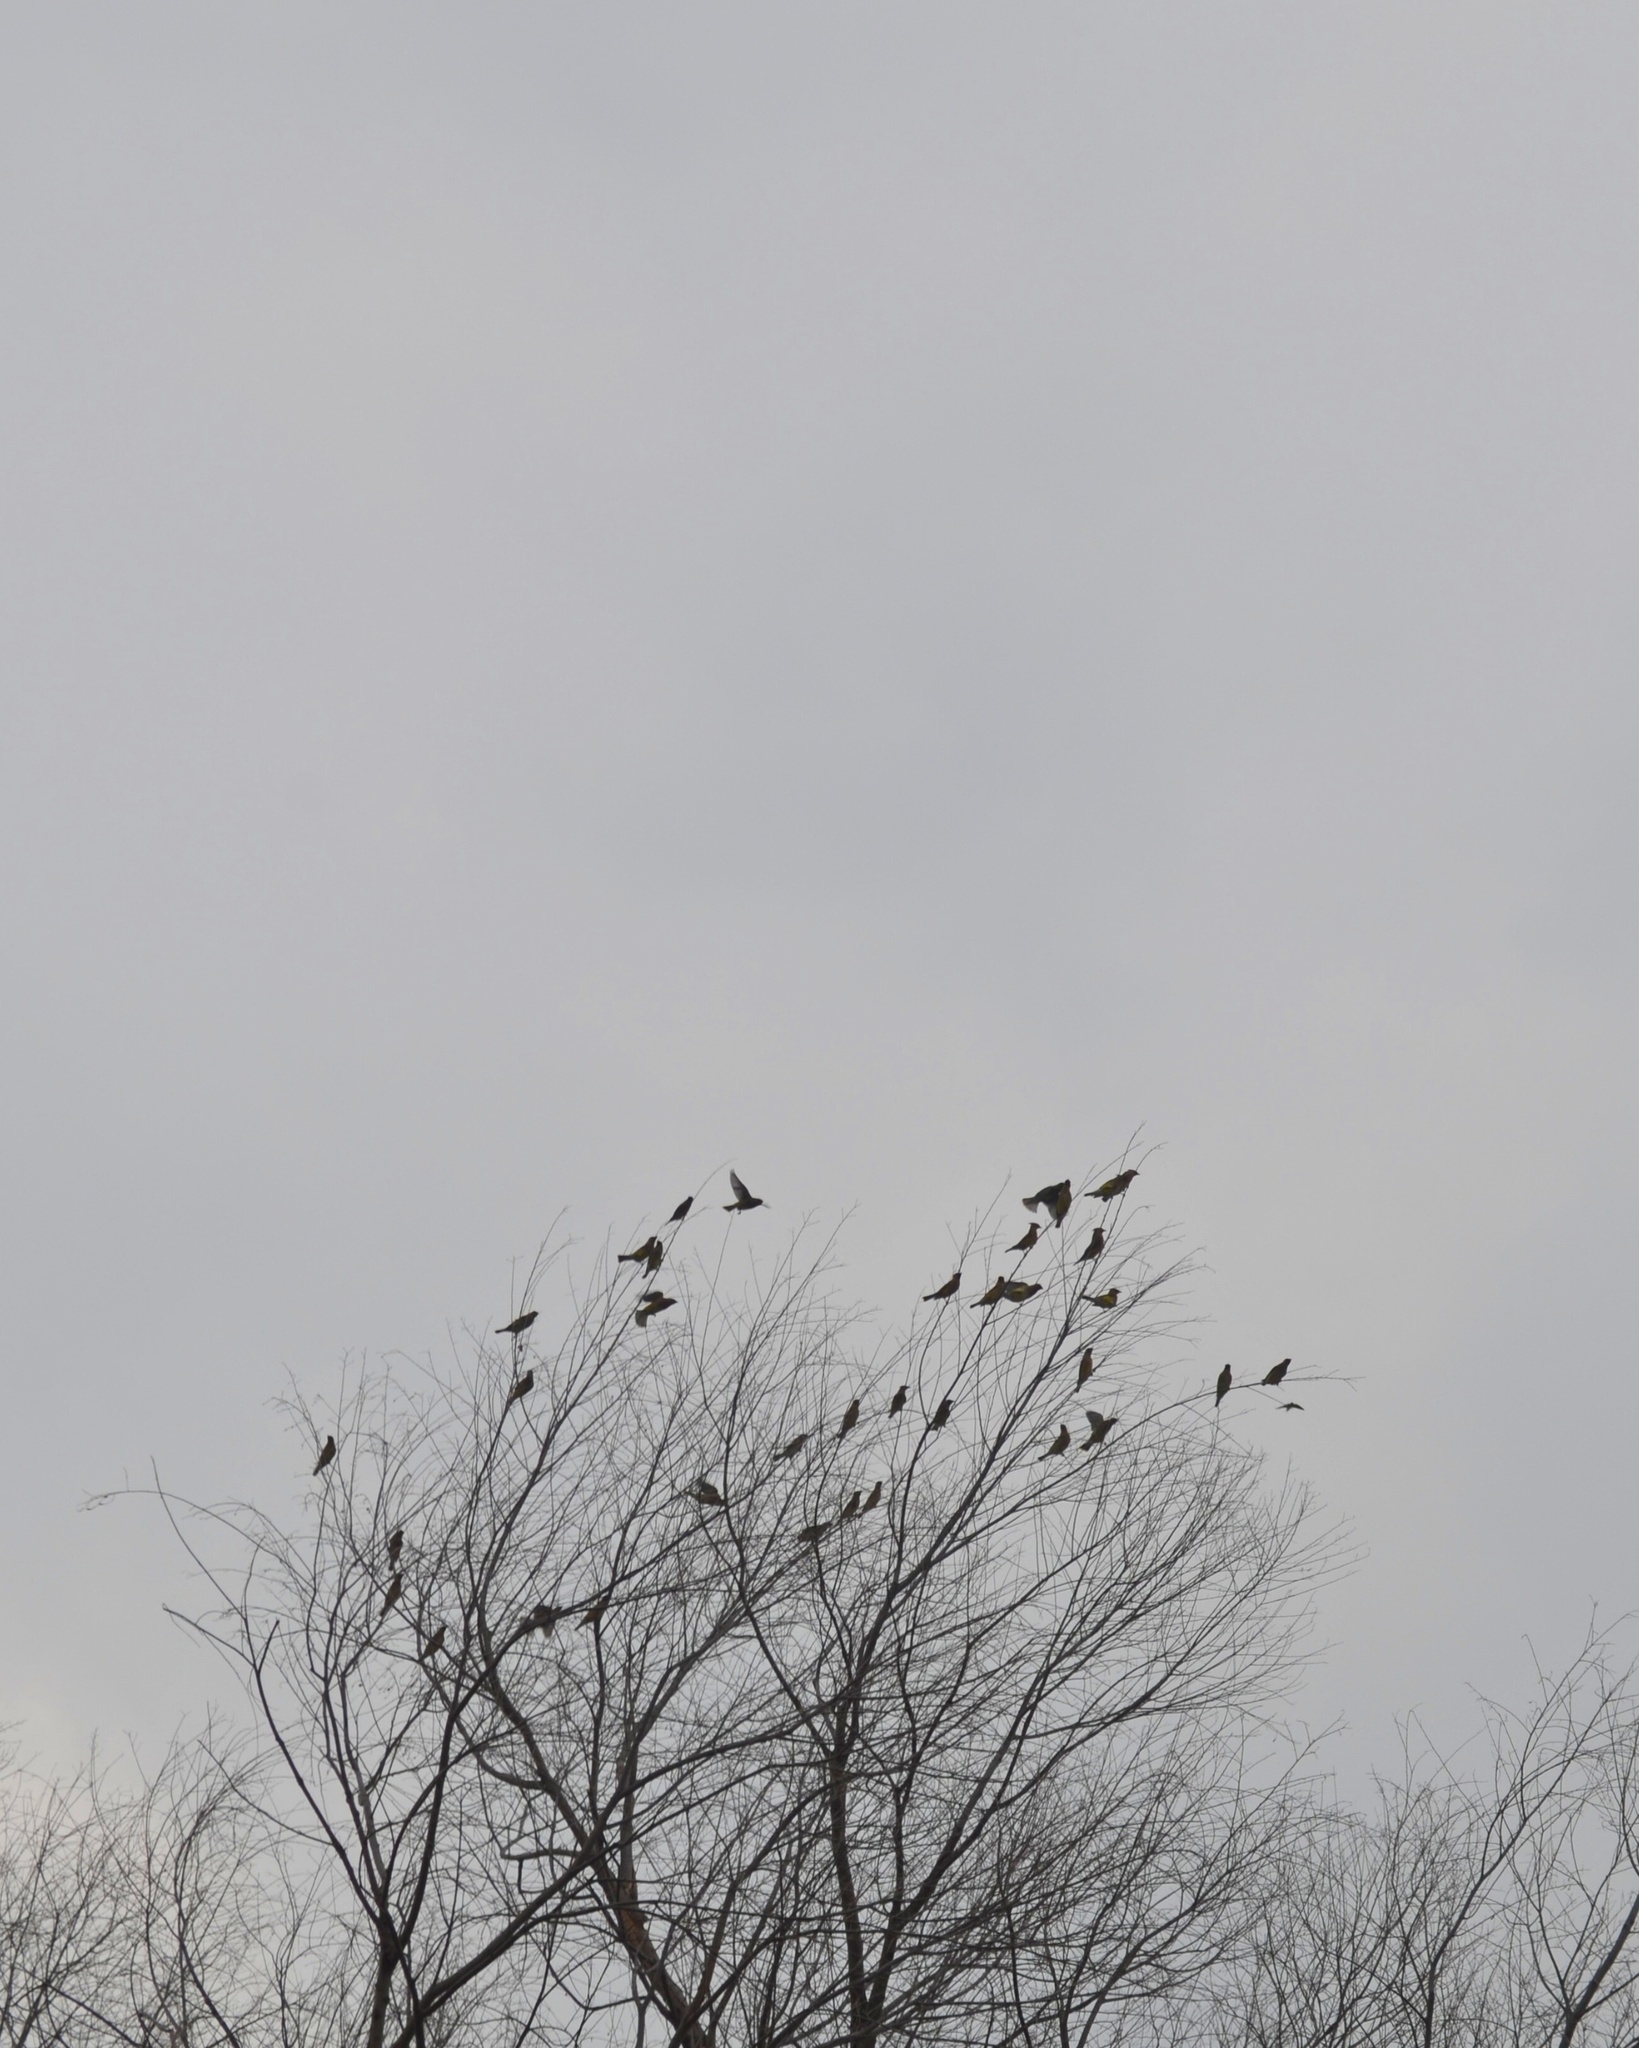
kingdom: Animalia
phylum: Chordata
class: Aves
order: Passeriformes
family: Bombycillidae
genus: Bombycilla
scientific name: Bombycilla cedrorum
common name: Cedar waxwing
